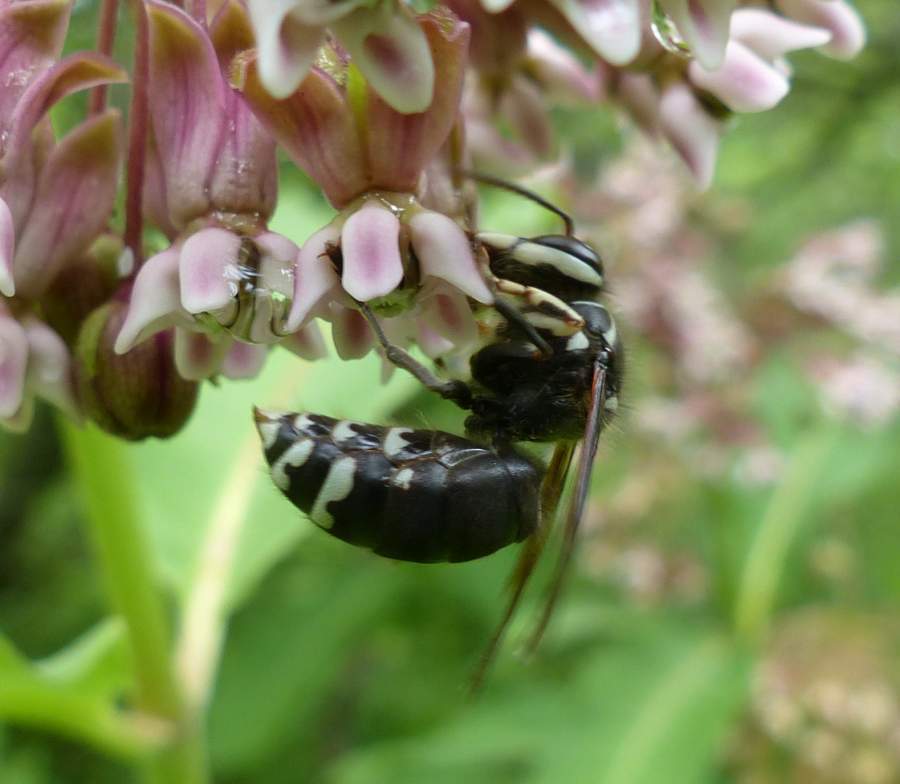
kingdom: Animalia
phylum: Arthropoda
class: Insecta
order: Hymenoptera
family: Vespidae
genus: Dolichovespula
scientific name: Dolichovespula maculata
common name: Bald-faced hornet
